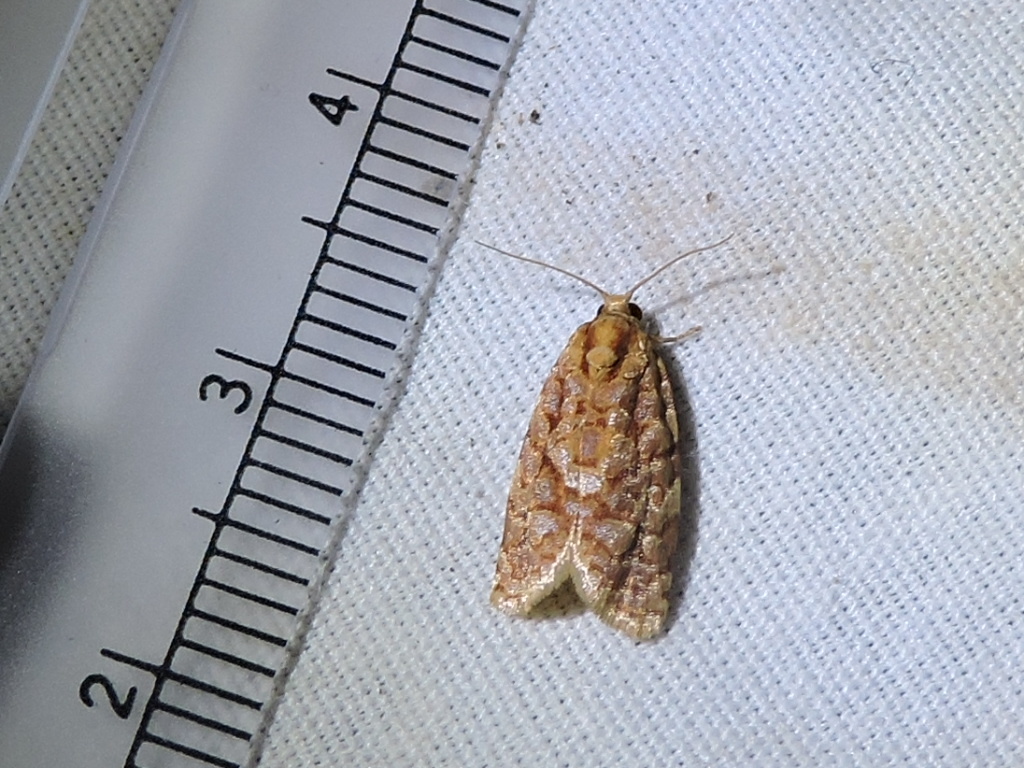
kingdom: Animalia
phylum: Arthropoda
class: Insecta
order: Lepidoptera
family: Tortricidae
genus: Choristoneura
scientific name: Choristoneura houstonana
